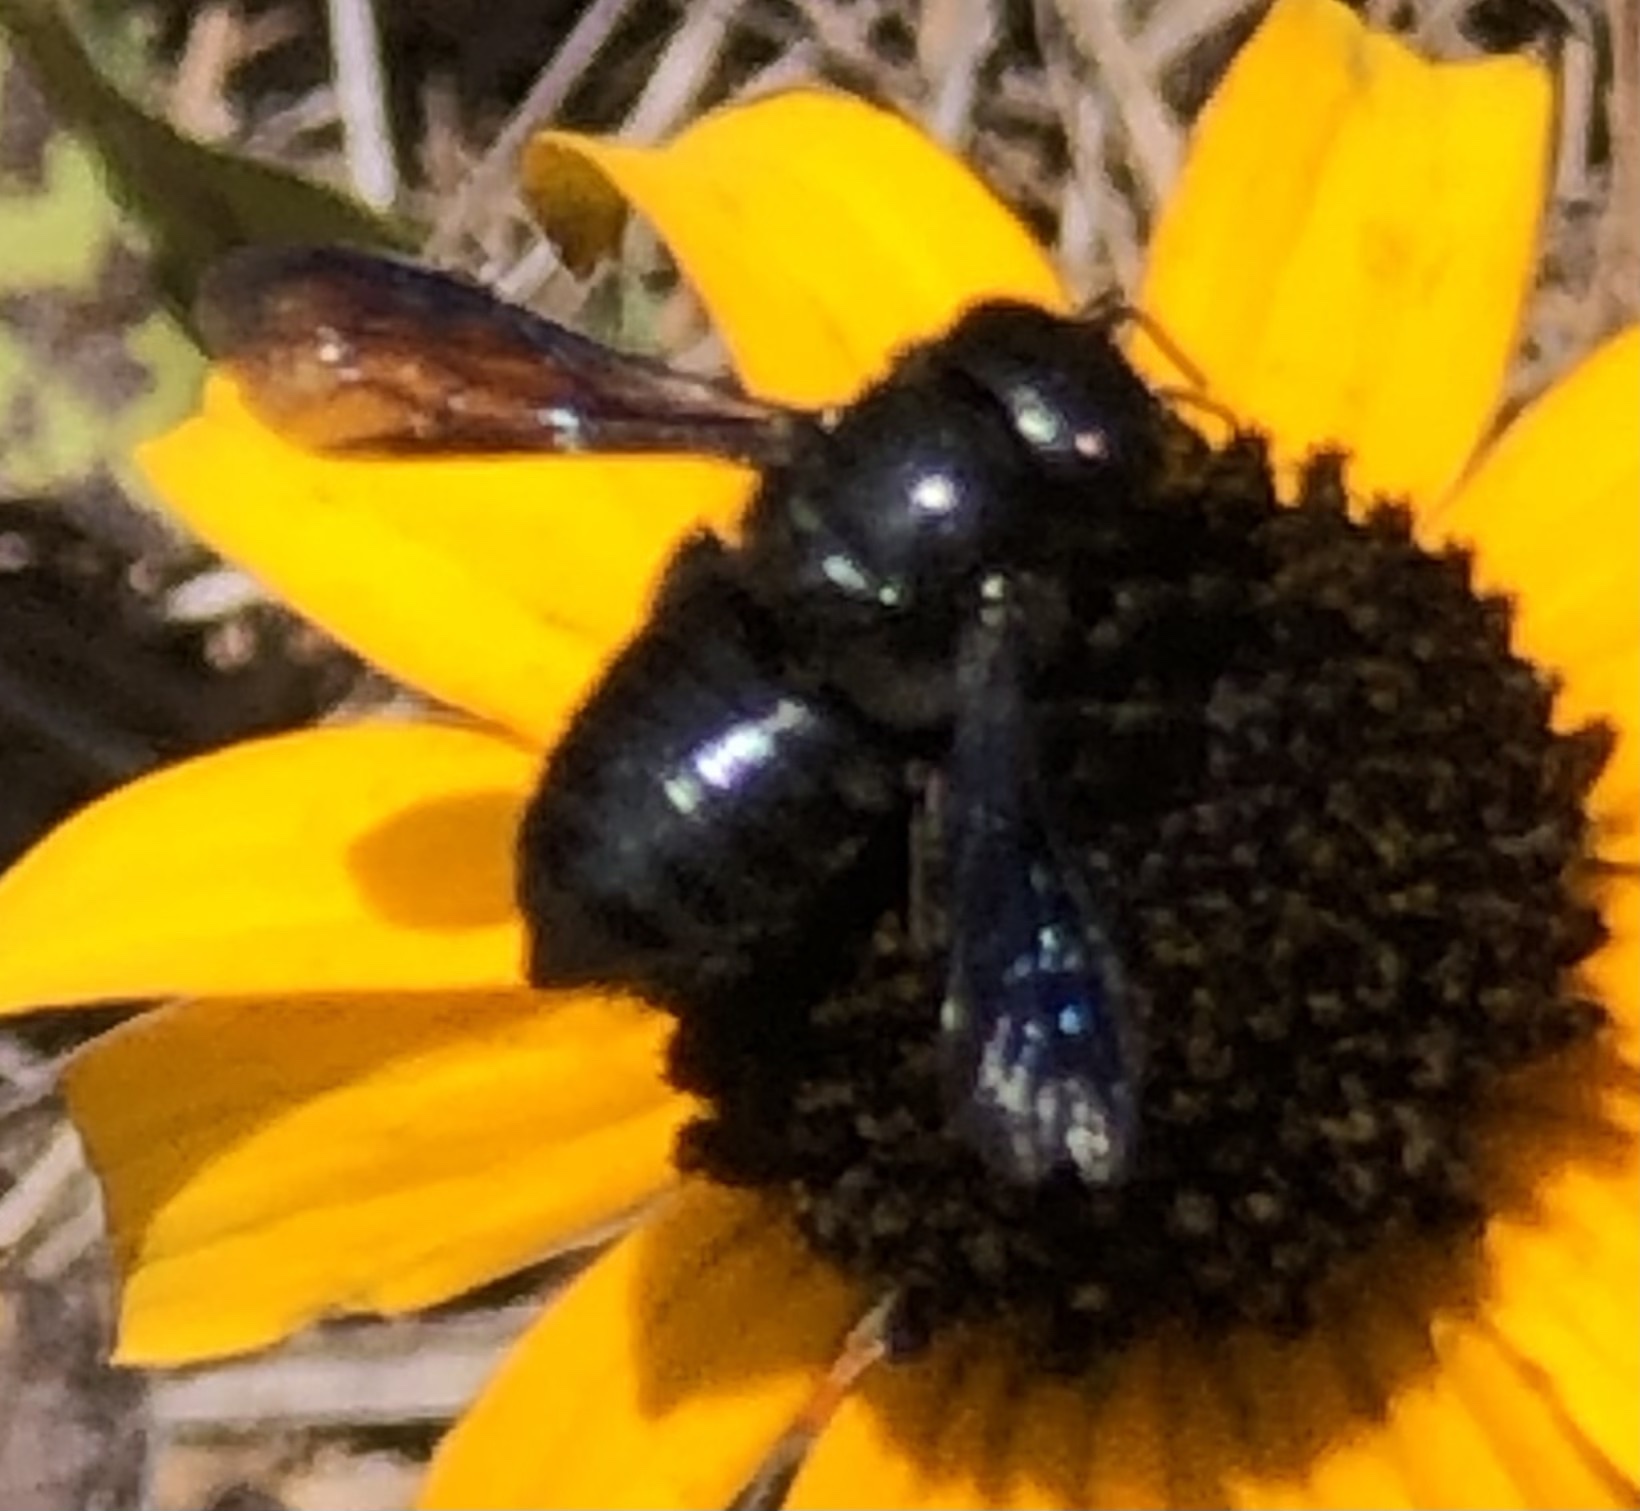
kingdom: Animalia
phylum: Arthropoda
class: Insecta
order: Hymenoptera
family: Megachilidae
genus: Megachile
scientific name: Megachile xylocopoides
